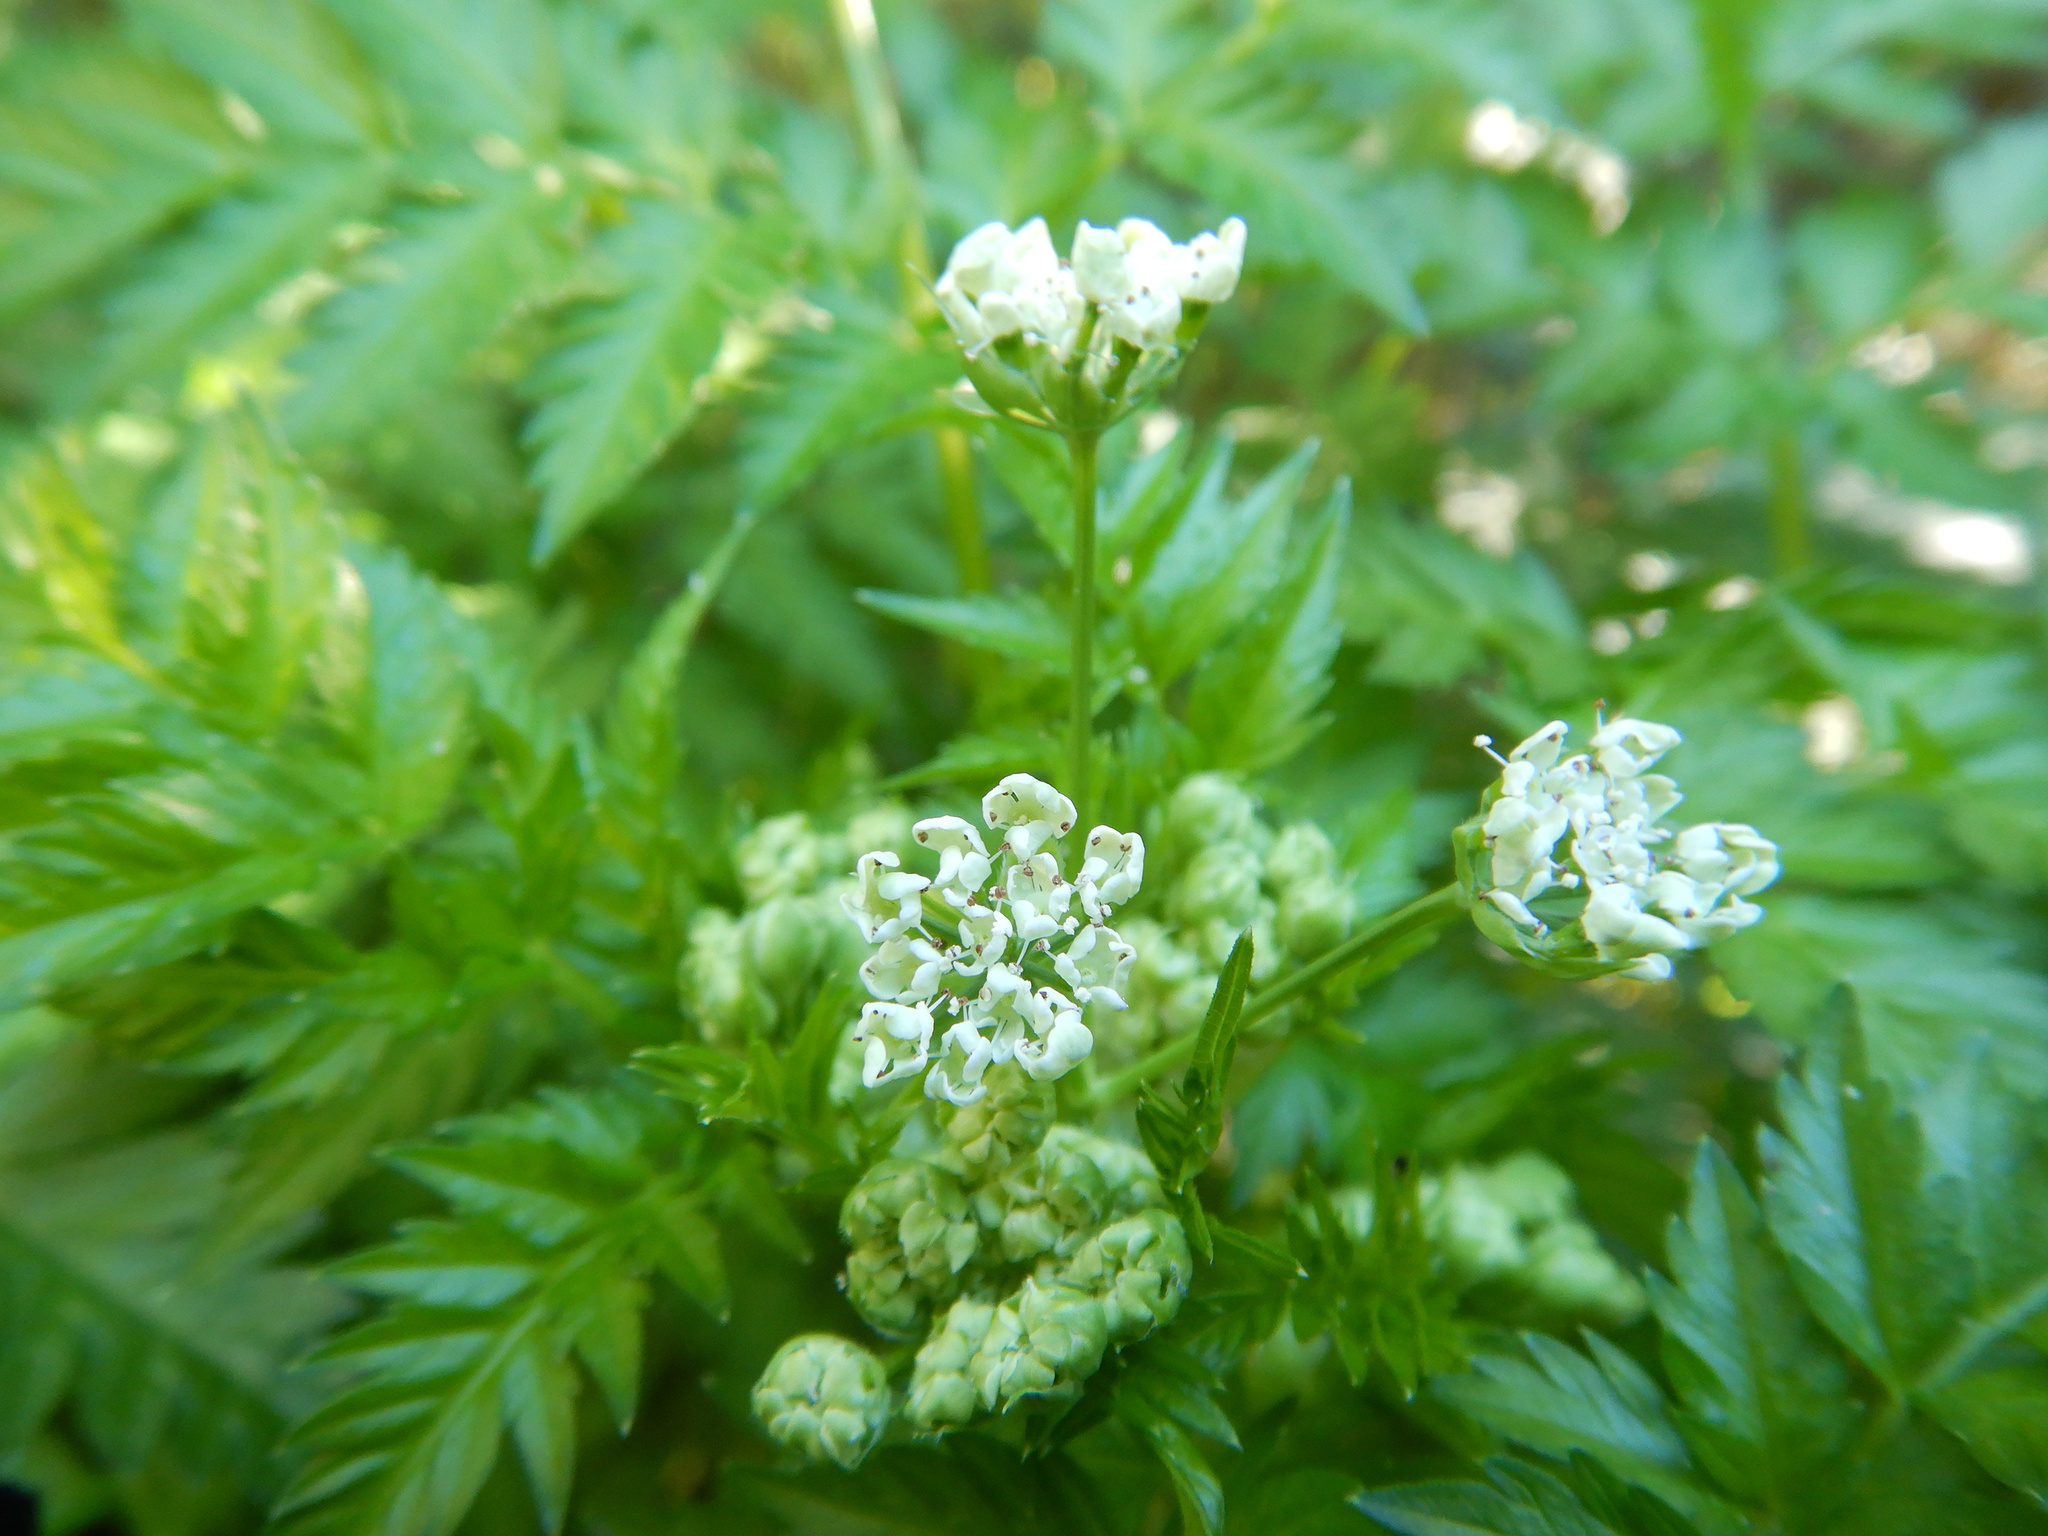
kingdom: Plantae
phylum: Tracheophyta
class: Magnoliopsida
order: Apiales
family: Apiaceae
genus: Anthriscus
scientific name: Anthriscus sylvestris
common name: Cow parsley
